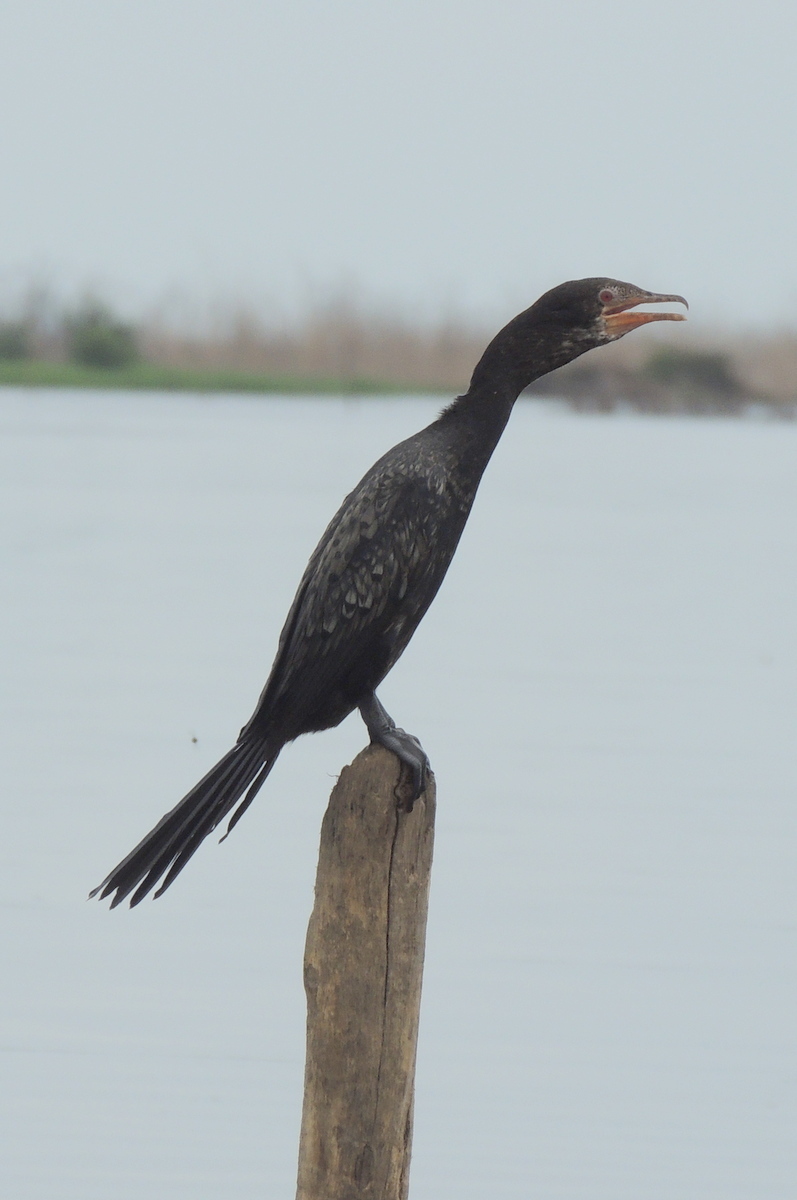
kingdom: Animalia
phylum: Chordata
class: Aves
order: Suliformes
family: Phalacrocoracidae
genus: Microcarbo
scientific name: Microcarbo africanus
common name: Long-tailed cormorant
